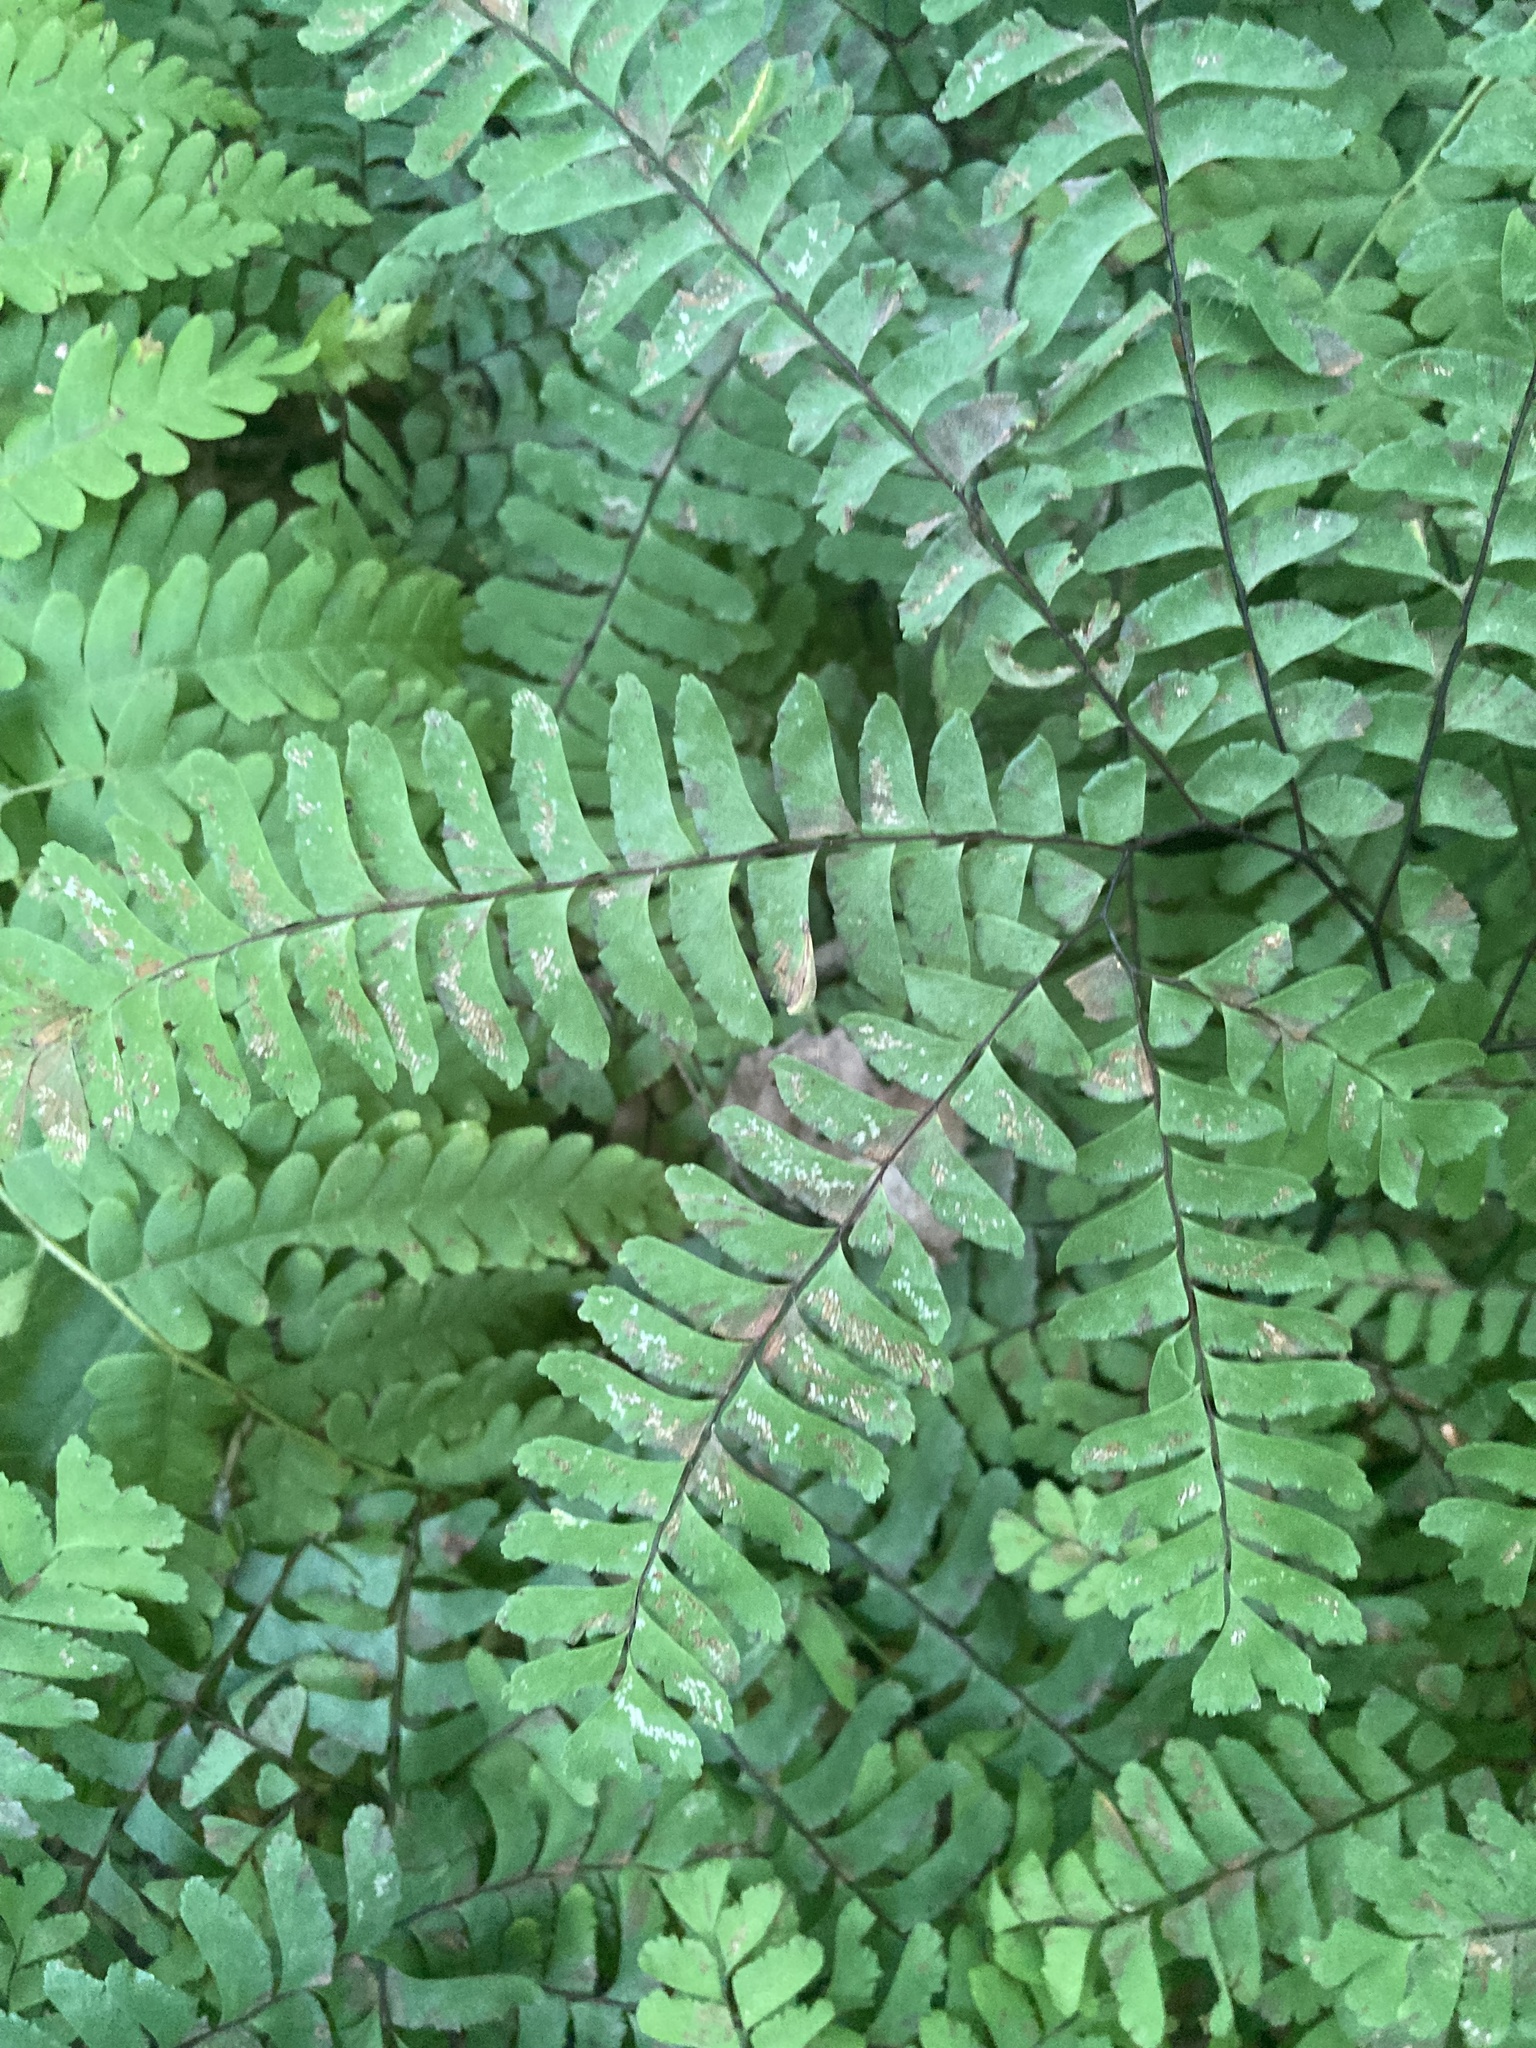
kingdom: Plantae
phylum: Tracheophyta
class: Polypodiopsida
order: Polypodiales
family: Pteridaceae
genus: Adiantum
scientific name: Adiantum pedatum
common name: Five-finger fern
